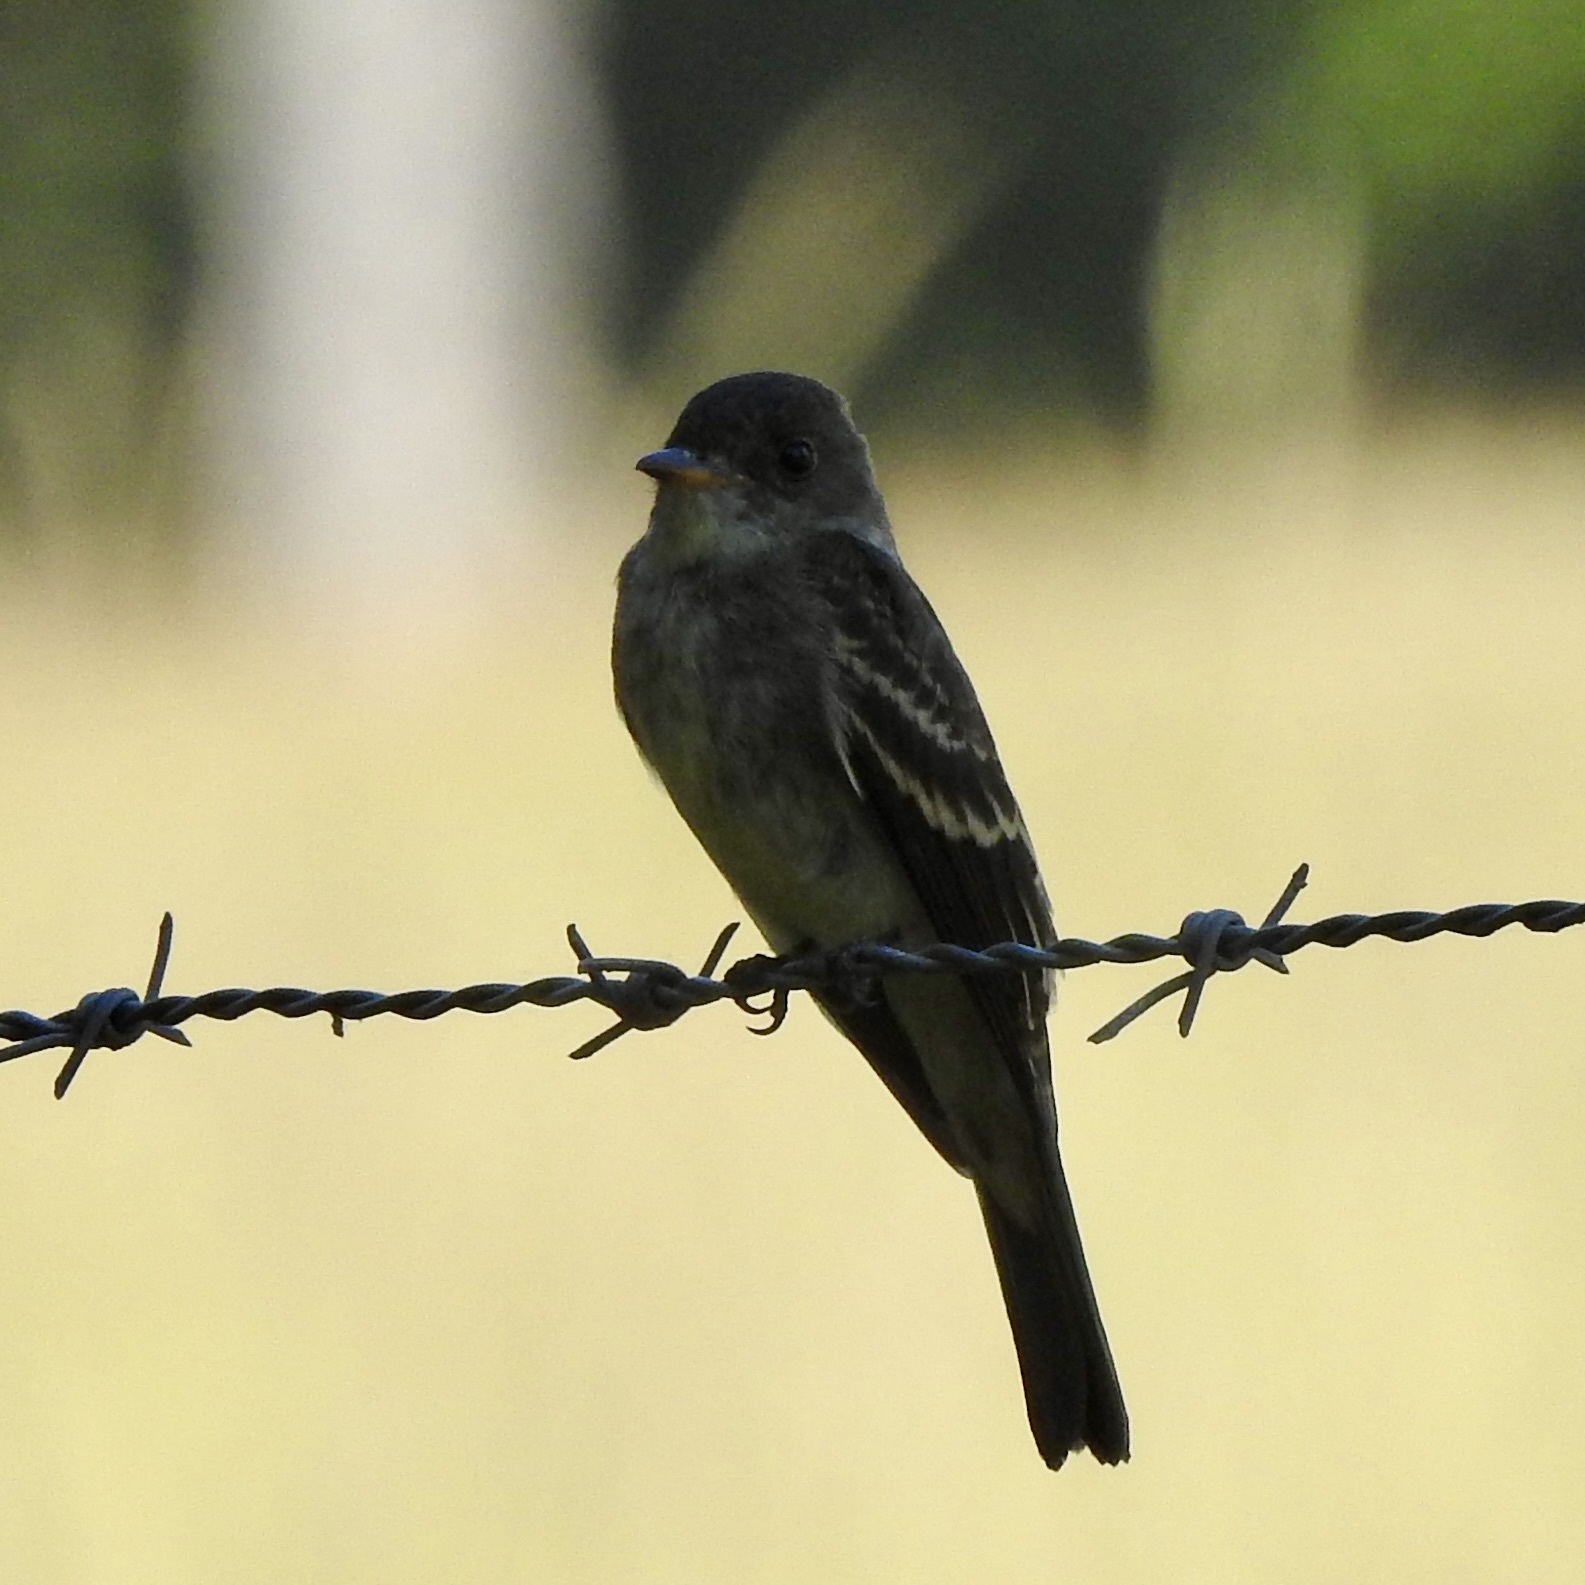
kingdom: Animalia
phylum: Chordata
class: Aves
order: Passeriformes
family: Tyrannidae
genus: Contopus
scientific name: Contopus virens
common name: Eastern wood-pewee
